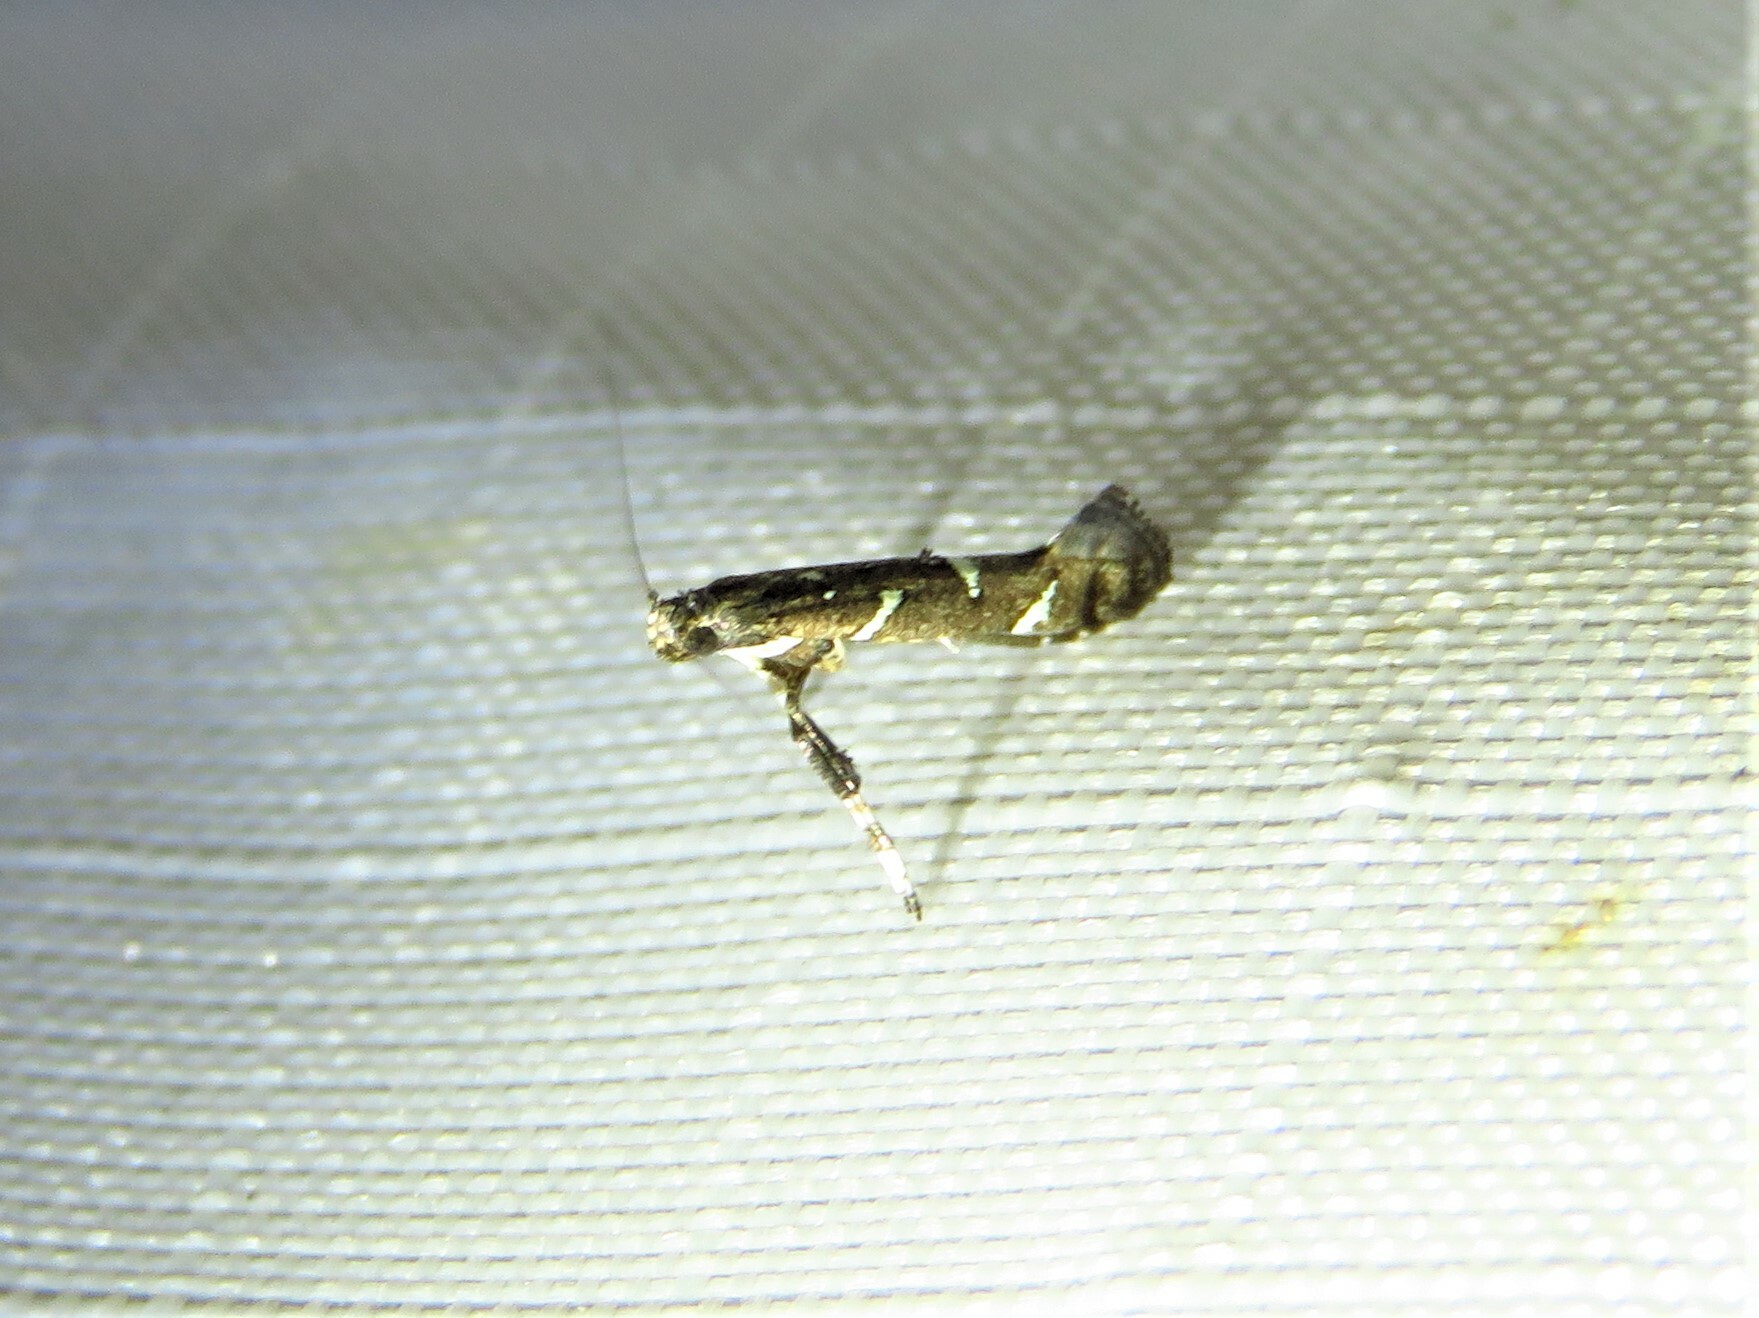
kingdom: Animalia
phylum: Arthropoda
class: Insecta
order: Lepidoptera
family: Gracillariidae
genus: Caloptilia
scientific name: Caloptilia triadicae
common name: Tallow leaf roller
